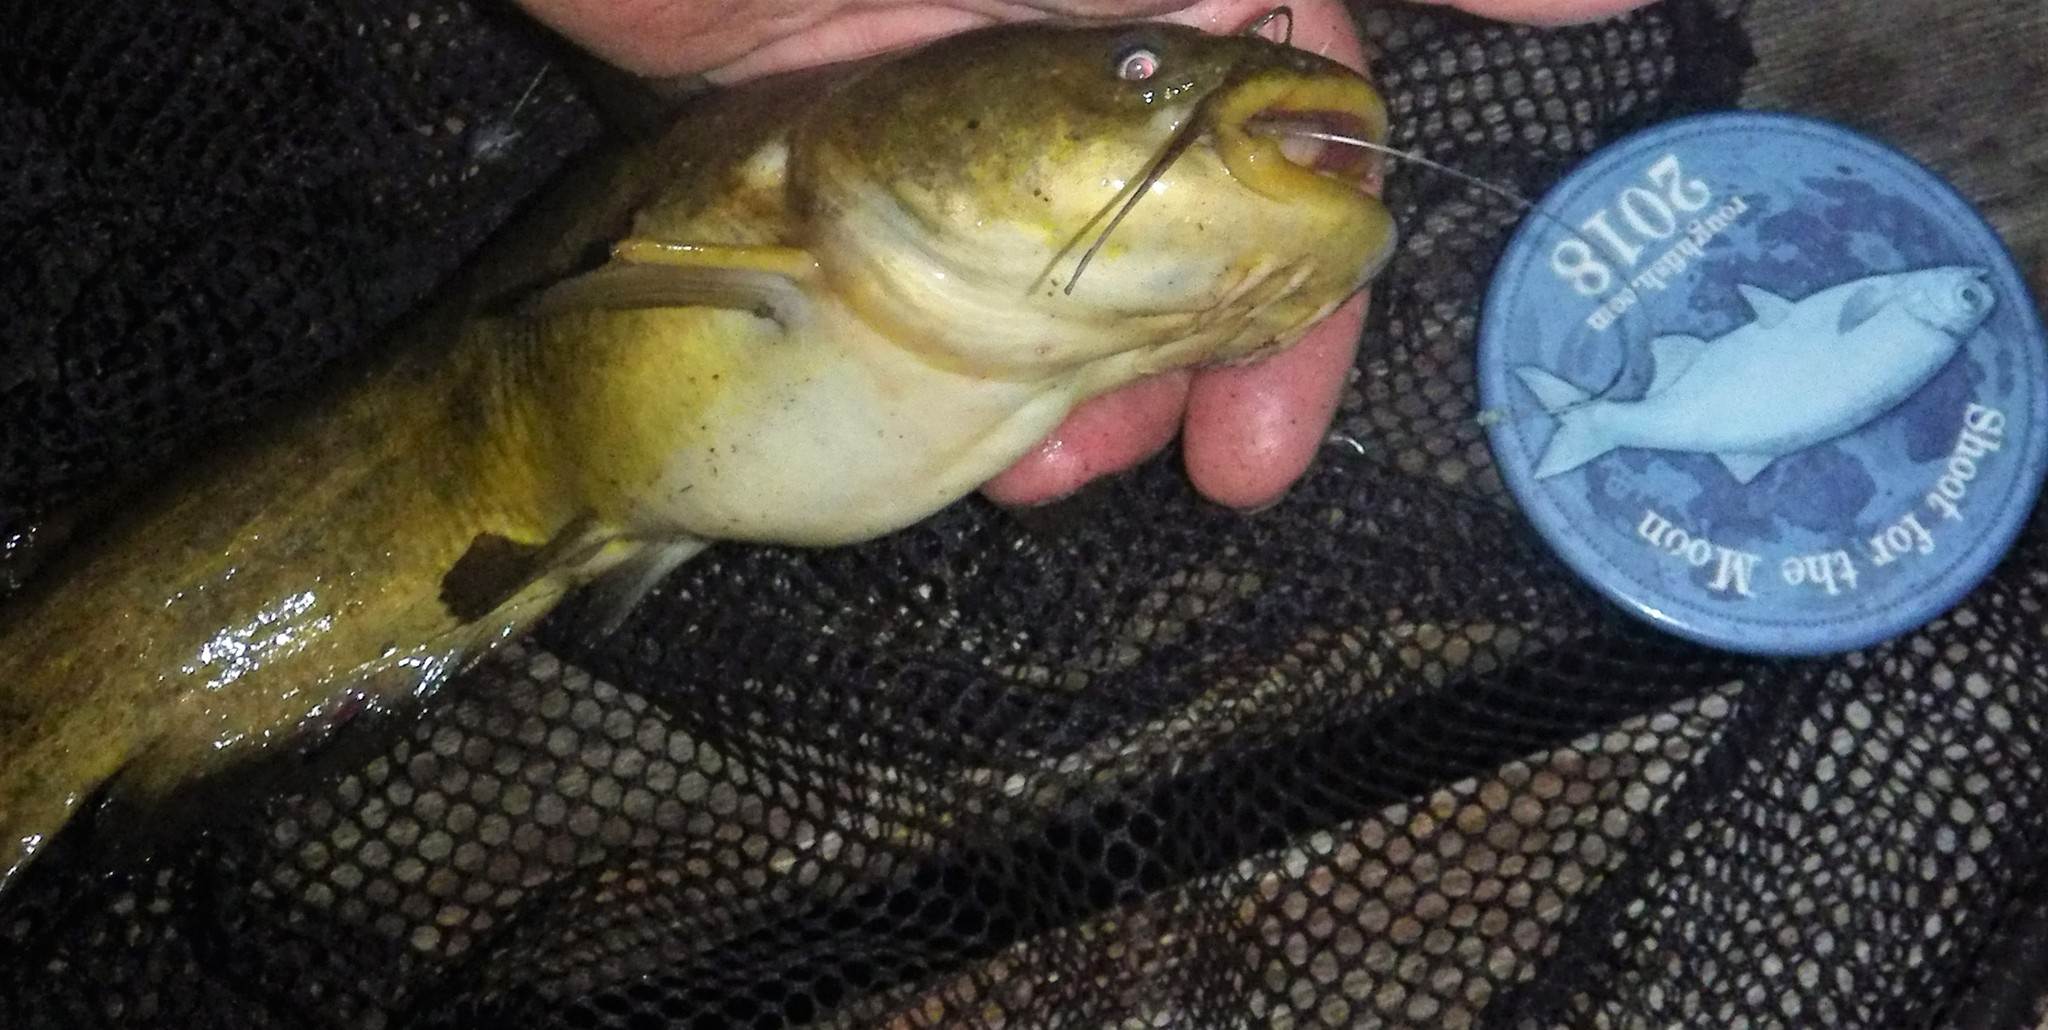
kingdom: Animalia
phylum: Chordata
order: Siluriformes
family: Ictaluridae
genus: Ameiurus
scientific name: Ameiurus natalis
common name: Yellow bullhead
